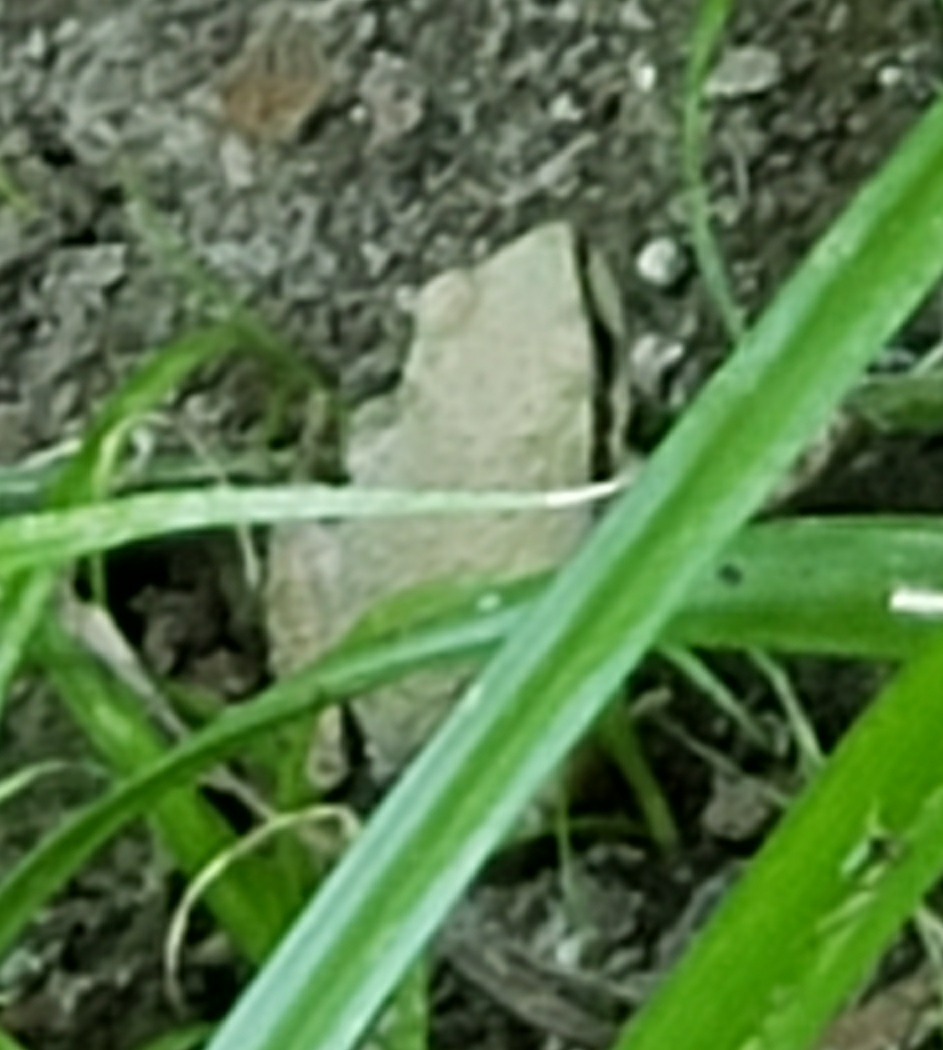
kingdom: Animalia
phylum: Chordata
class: Amphibia
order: Anura
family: Hylidae
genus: Pseudacris
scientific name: Pseudacris regilla
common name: Pacific chorus frog
